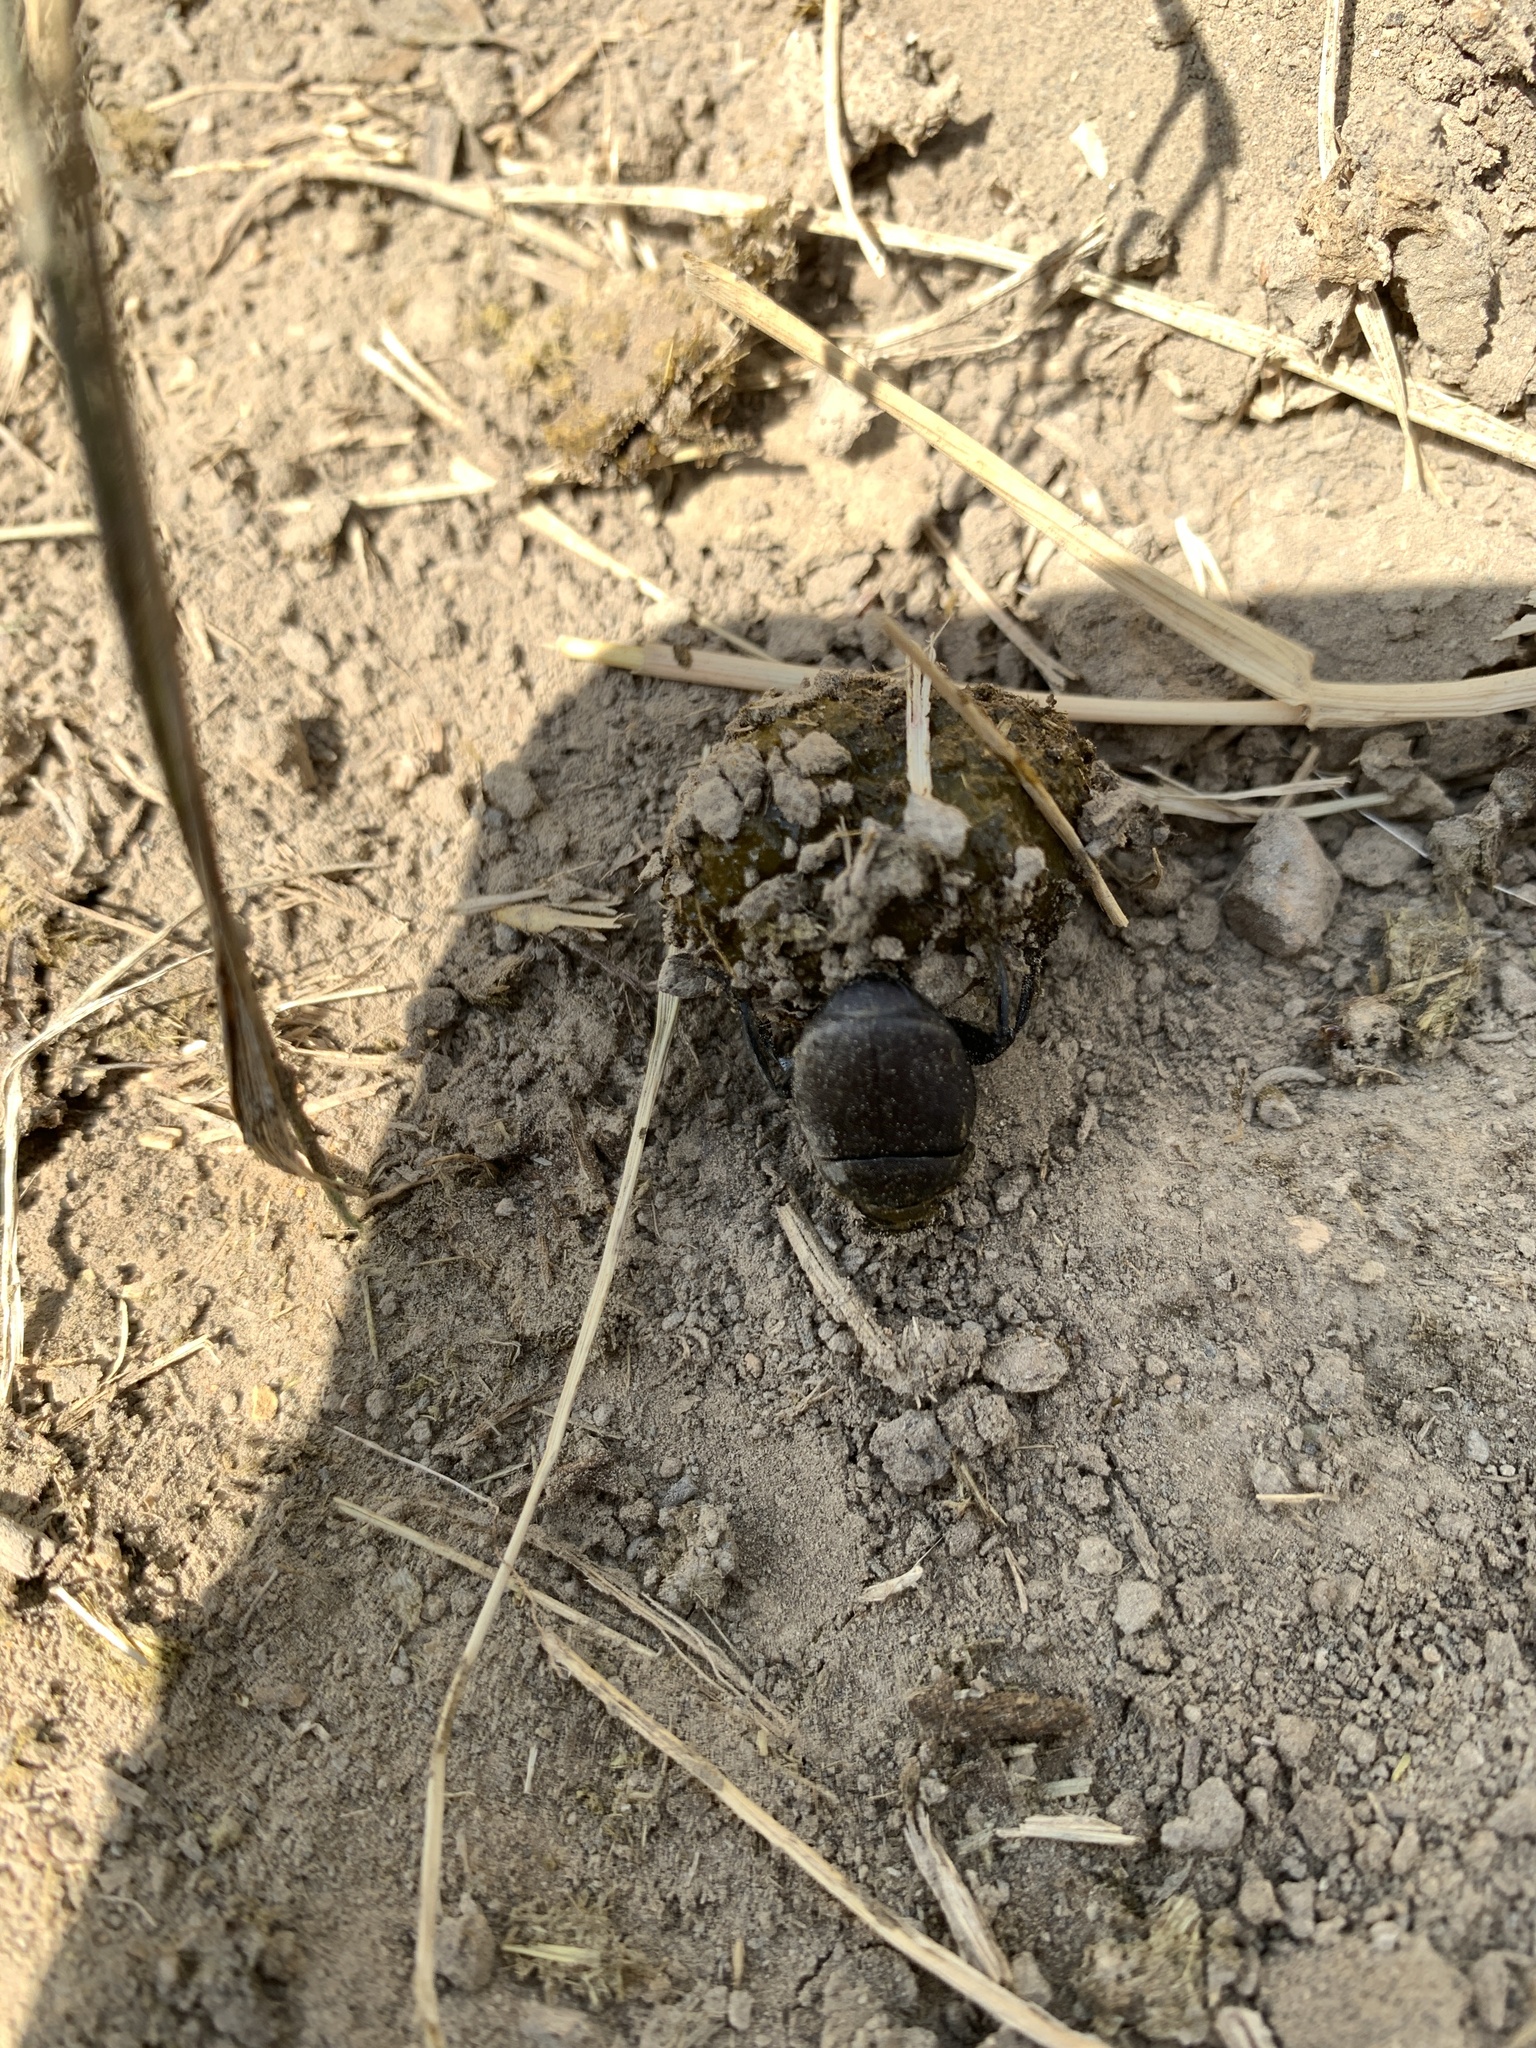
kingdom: Animalia
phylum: Arthropoda
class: Insecta
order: Coleoptera
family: Scarabaeidae
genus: Canthon
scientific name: Canthon pilularius
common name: Dull tumblebug
